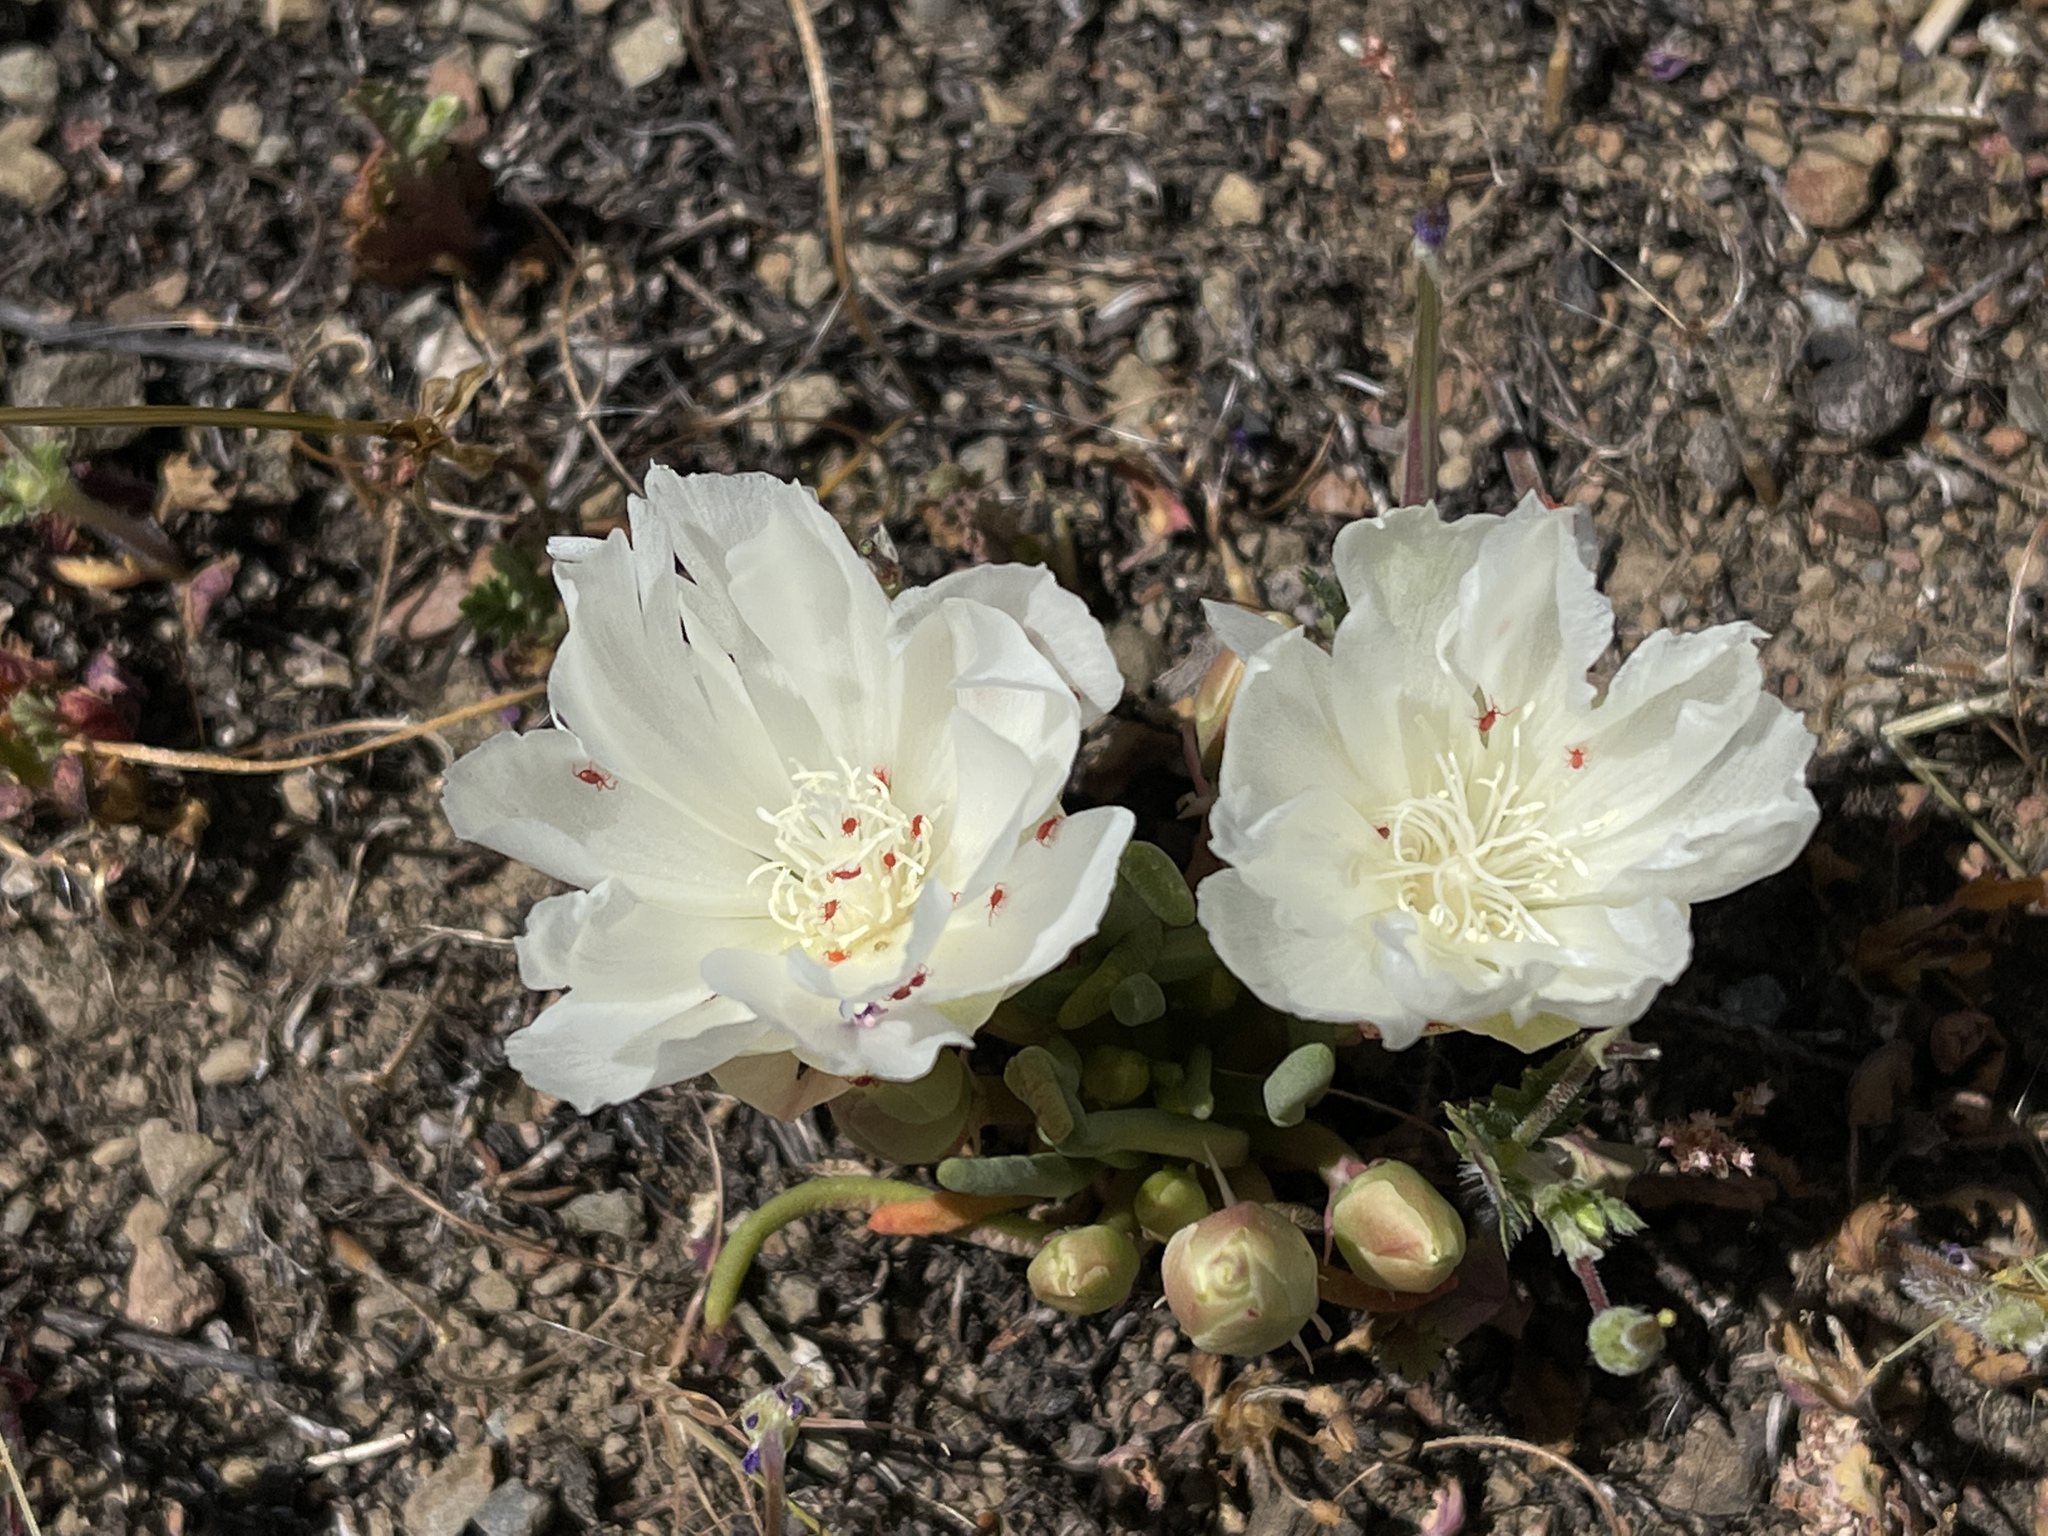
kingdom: Plantae
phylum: Tracheophyta
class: Magnoliopsida
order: Caryophyllales
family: Montiaceae
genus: Lewisia
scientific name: Lewisia rediviva
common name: Bitter-root
